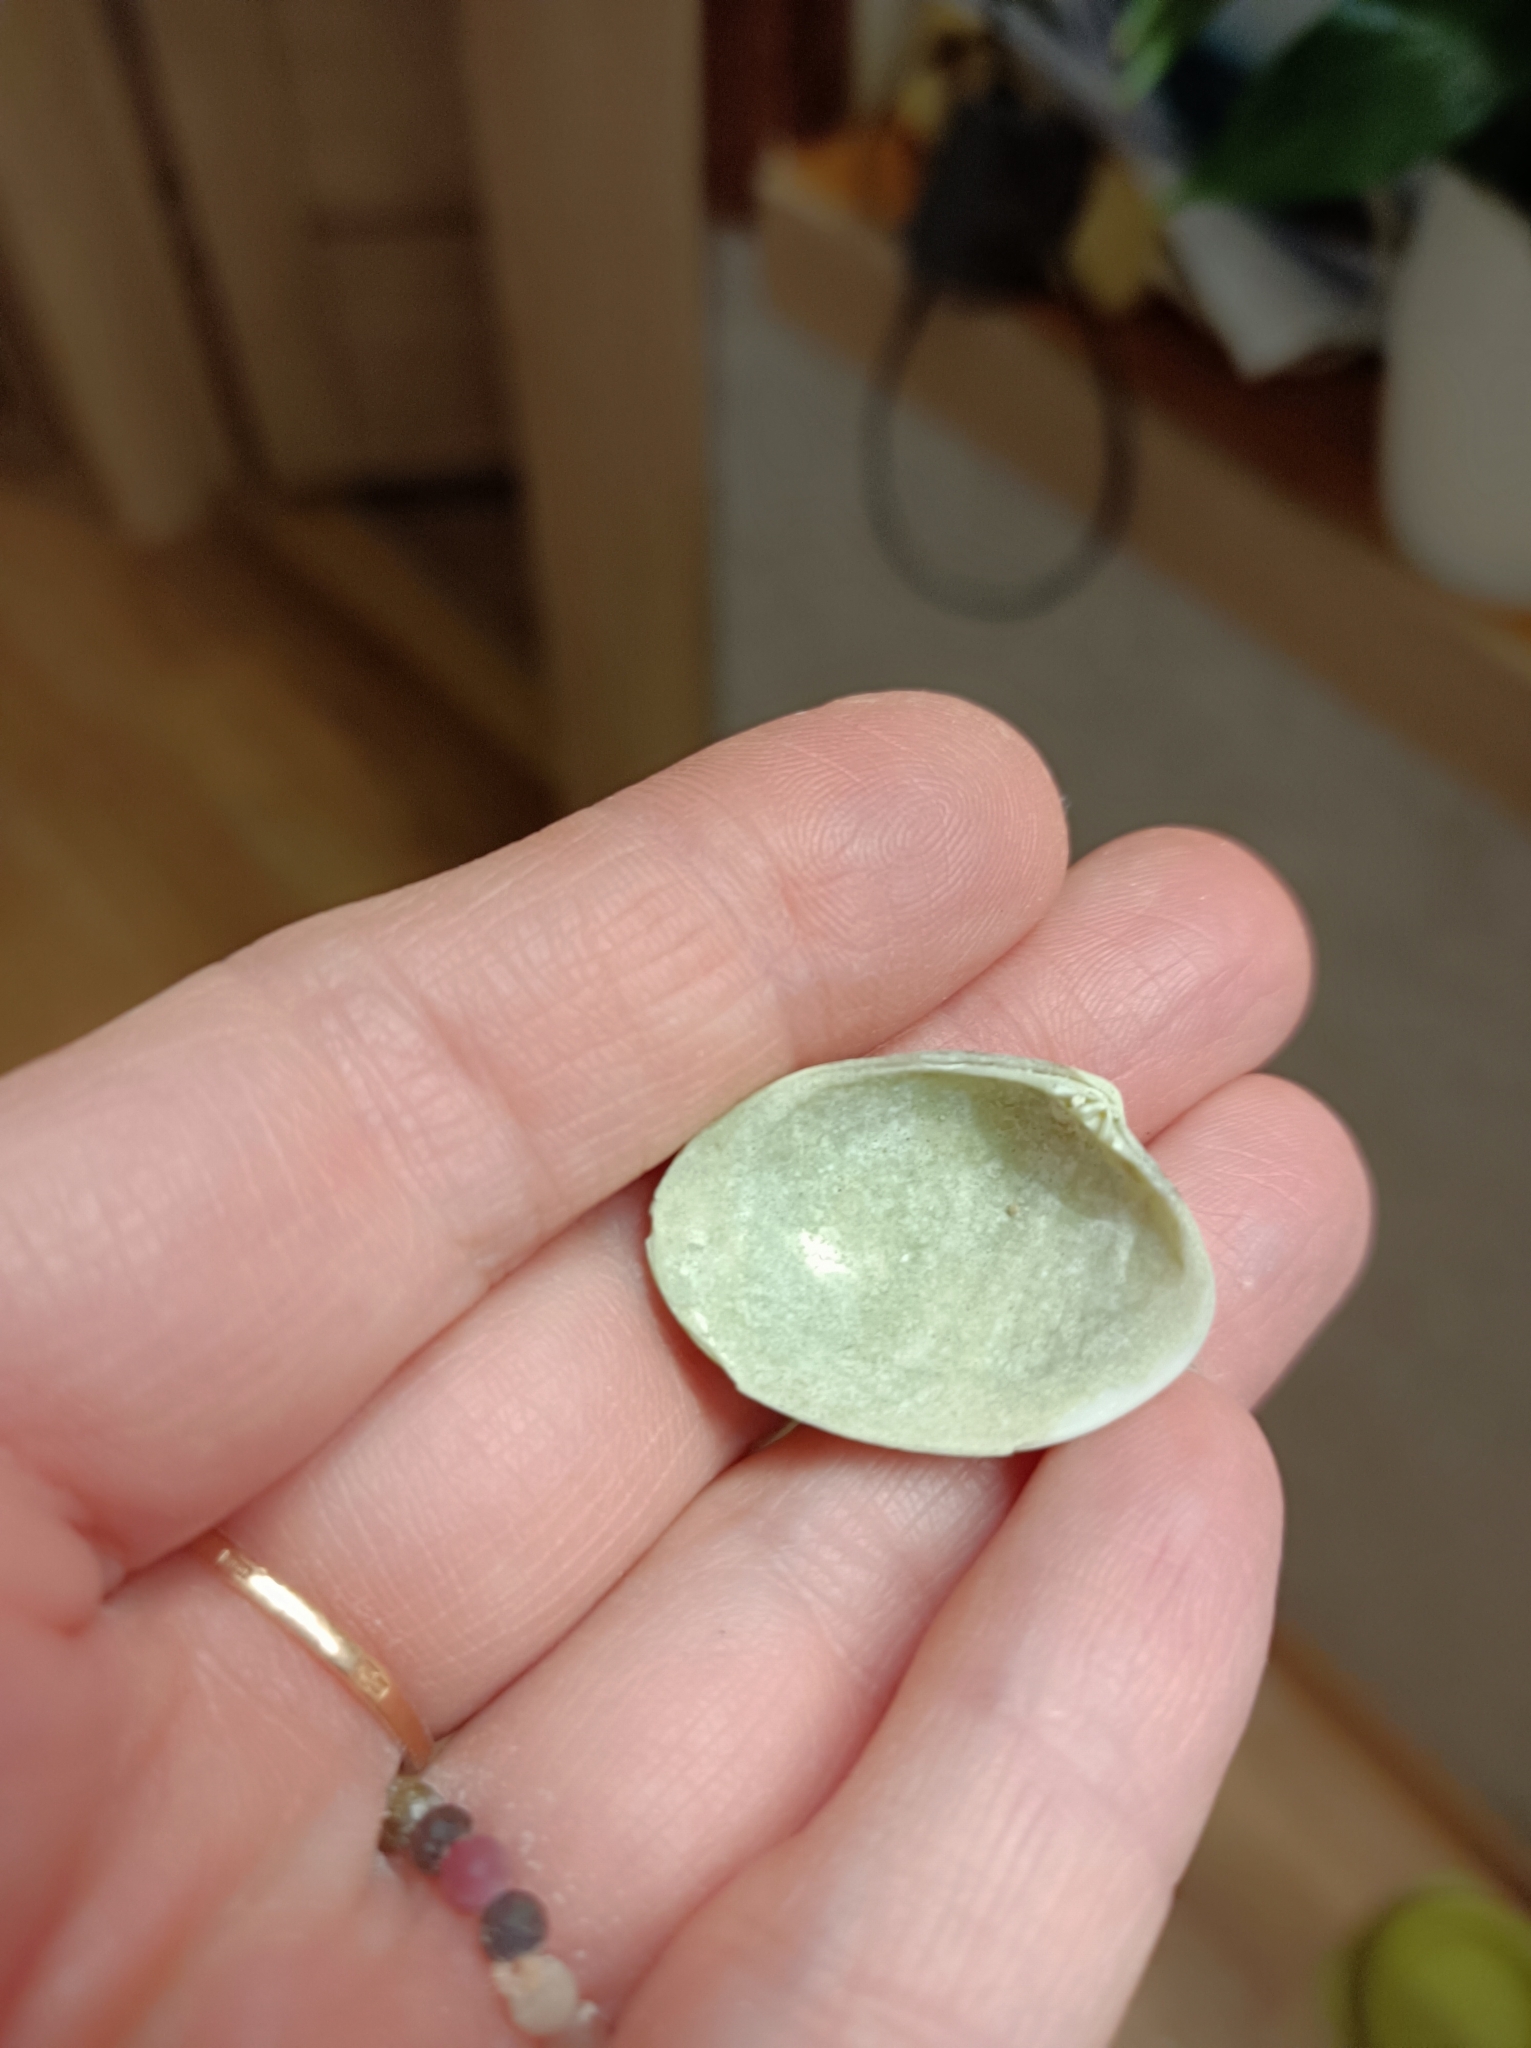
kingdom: Animalia
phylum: Mollusca
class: Bivalvia
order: Venerida
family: Veneridae
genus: Polititapes
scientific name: Polititapes aureus
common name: Golden carpet shell
